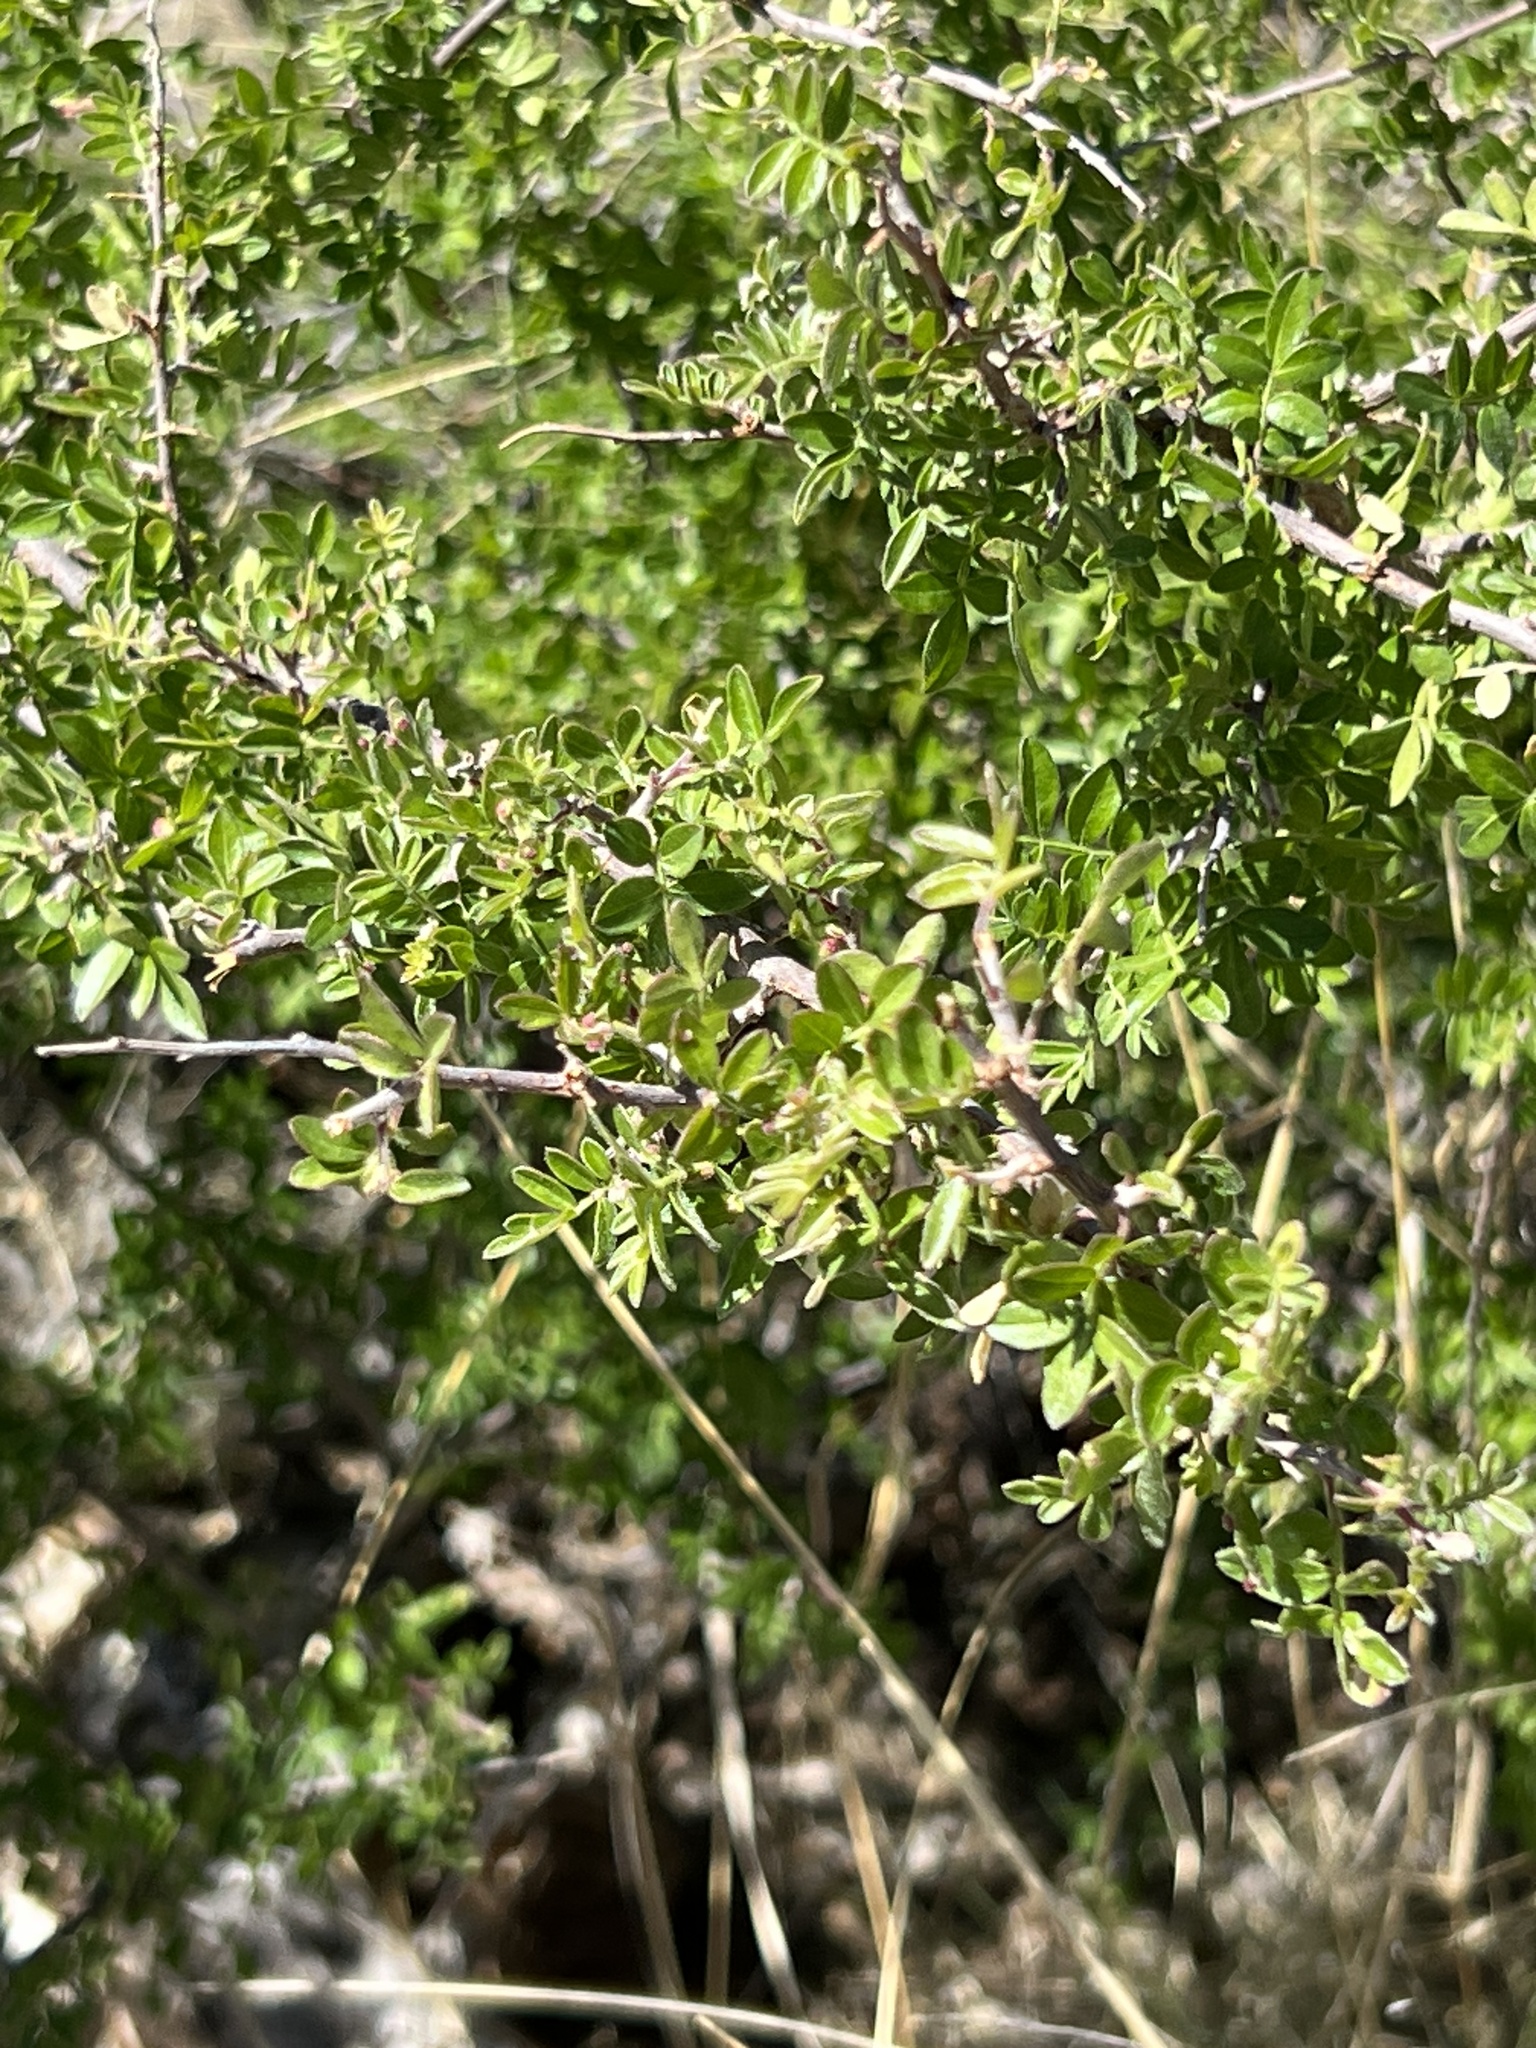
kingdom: Plantae
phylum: Tracheophyta
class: Magnoliopsida
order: Sapindales
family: Anacardiaceae
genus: Rhus
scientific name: Rhus microphylla
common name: Desert sumac
